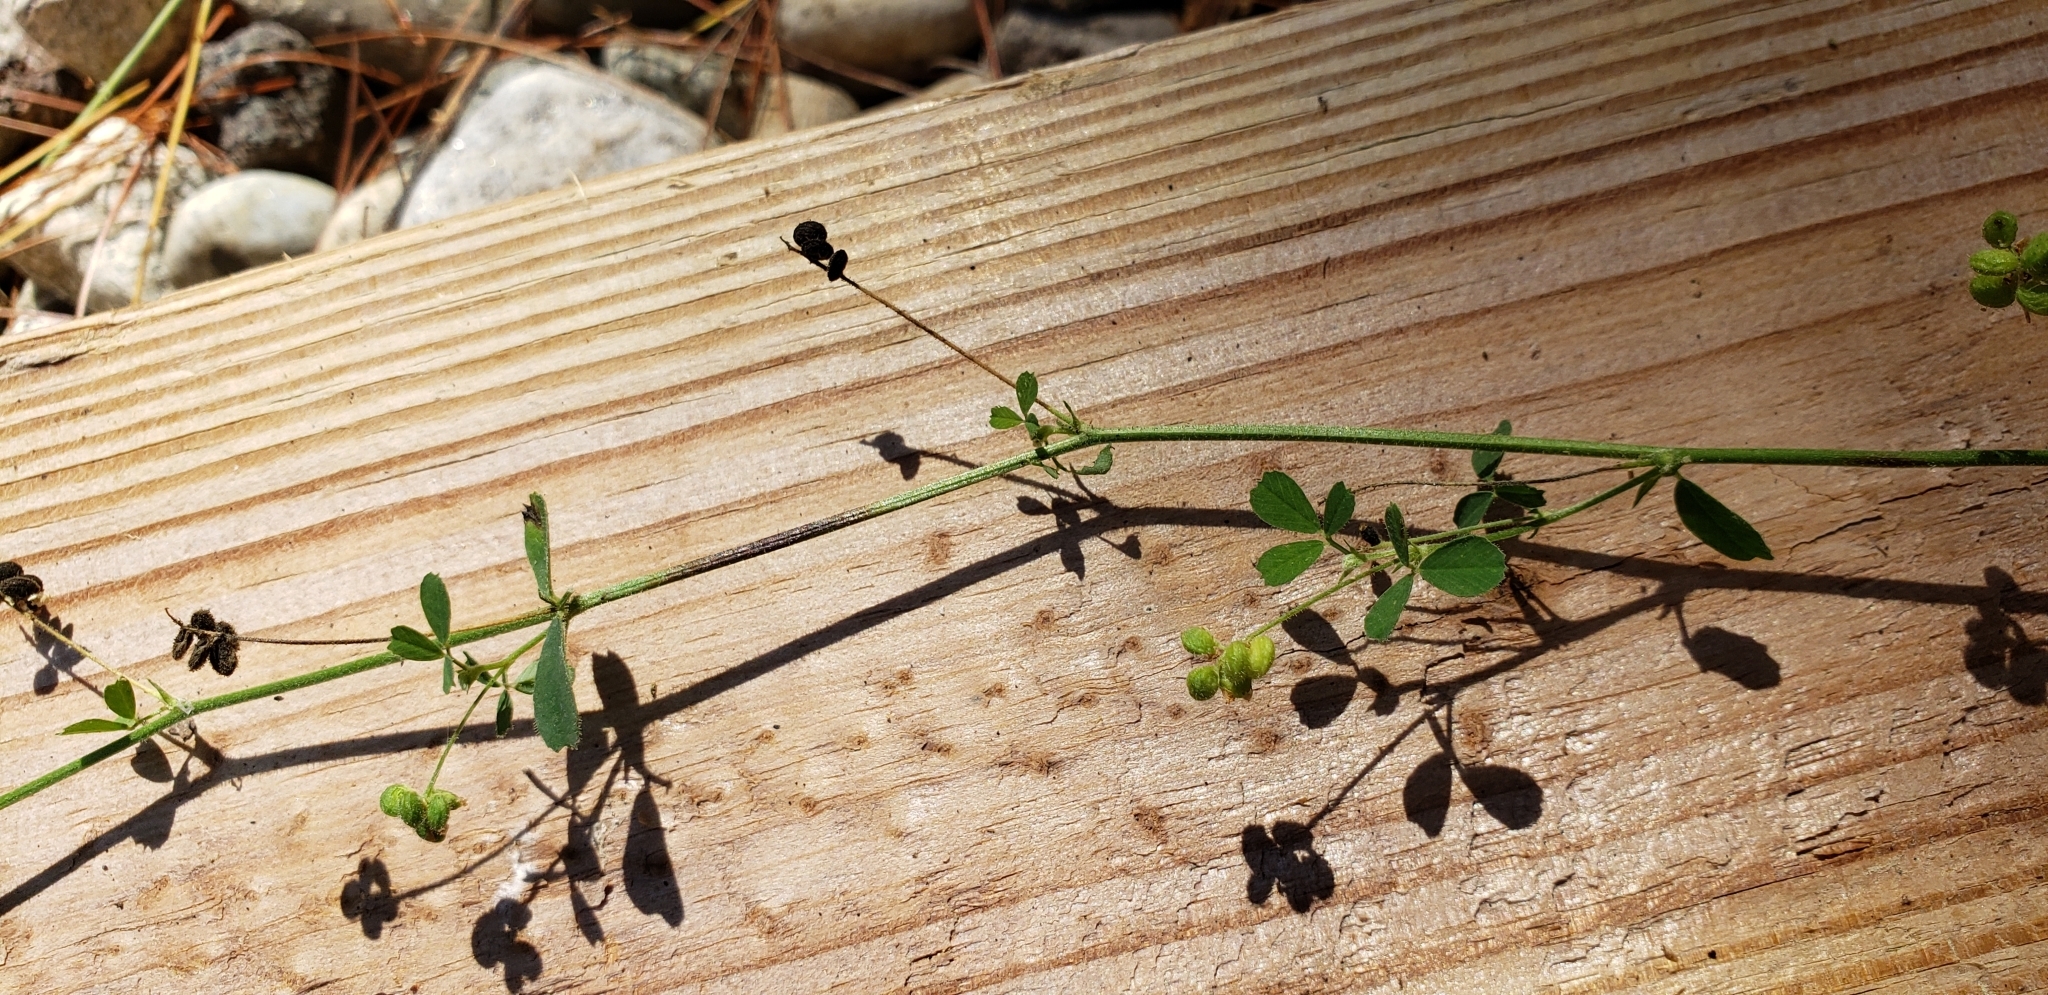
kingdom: Plantae
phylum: Tracheophyta
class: Magnoliopsida
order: Fabales
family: Fabaceae
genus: Medicago
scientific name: Medicago lupulina
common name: Black medick
